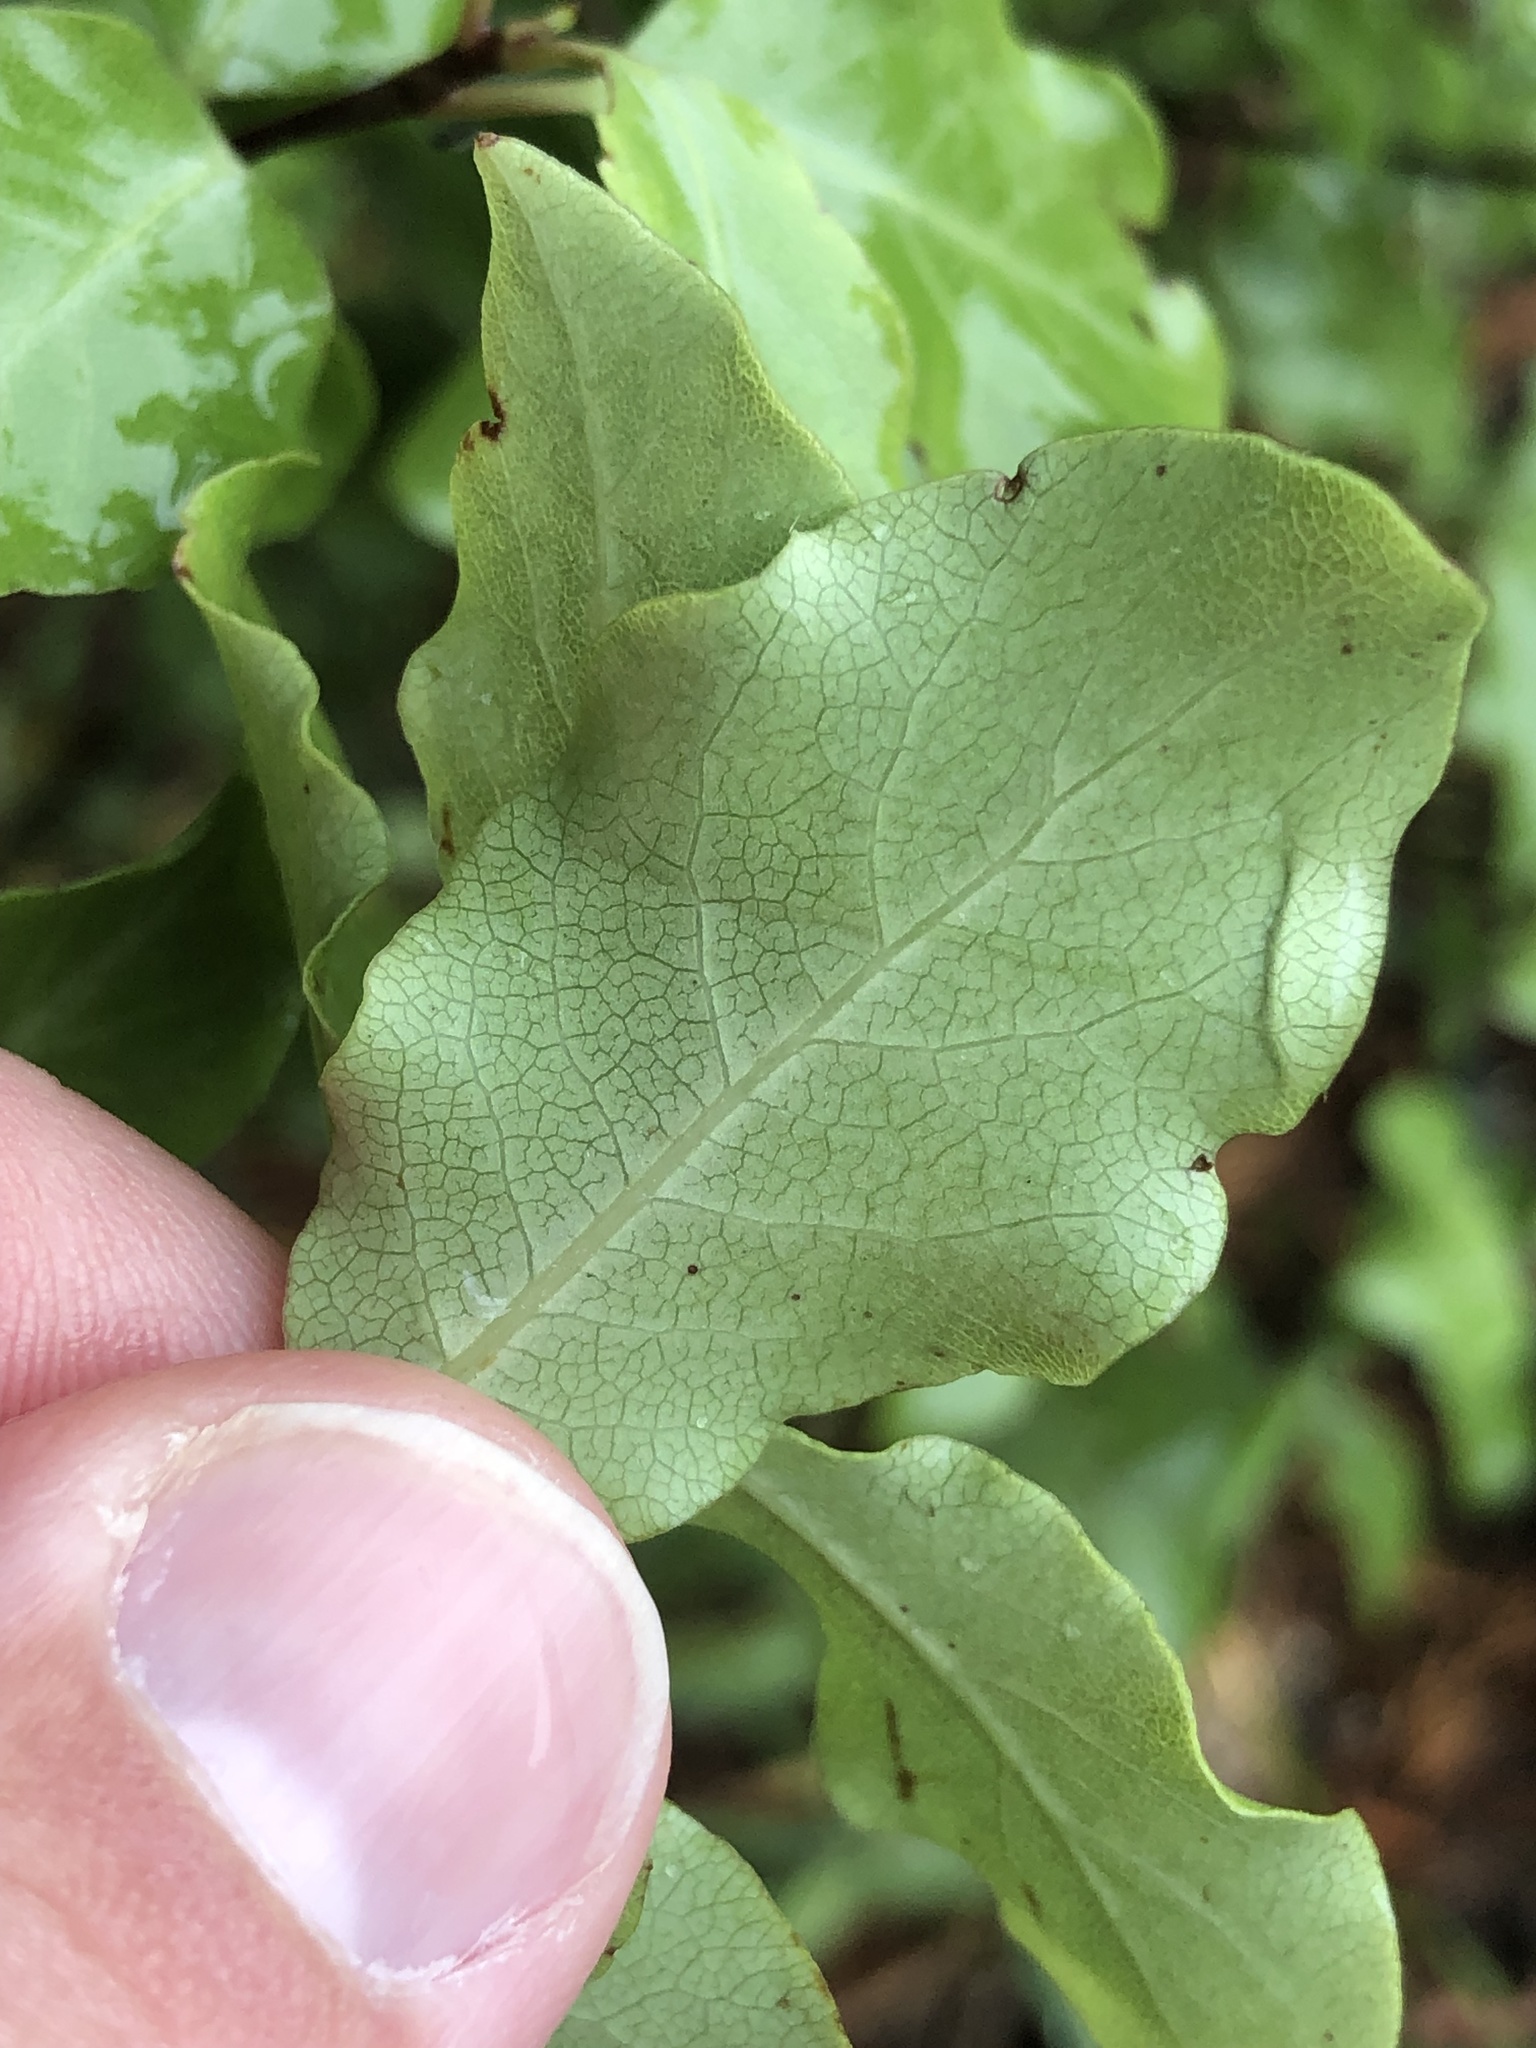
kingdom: Plantae
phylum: Tracheophyta
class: Magnoliopsida
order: Apiales
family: Pittosporaceae
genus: Pittosporum
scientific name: Pittosporum tenuifolium
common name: Kohuhu
